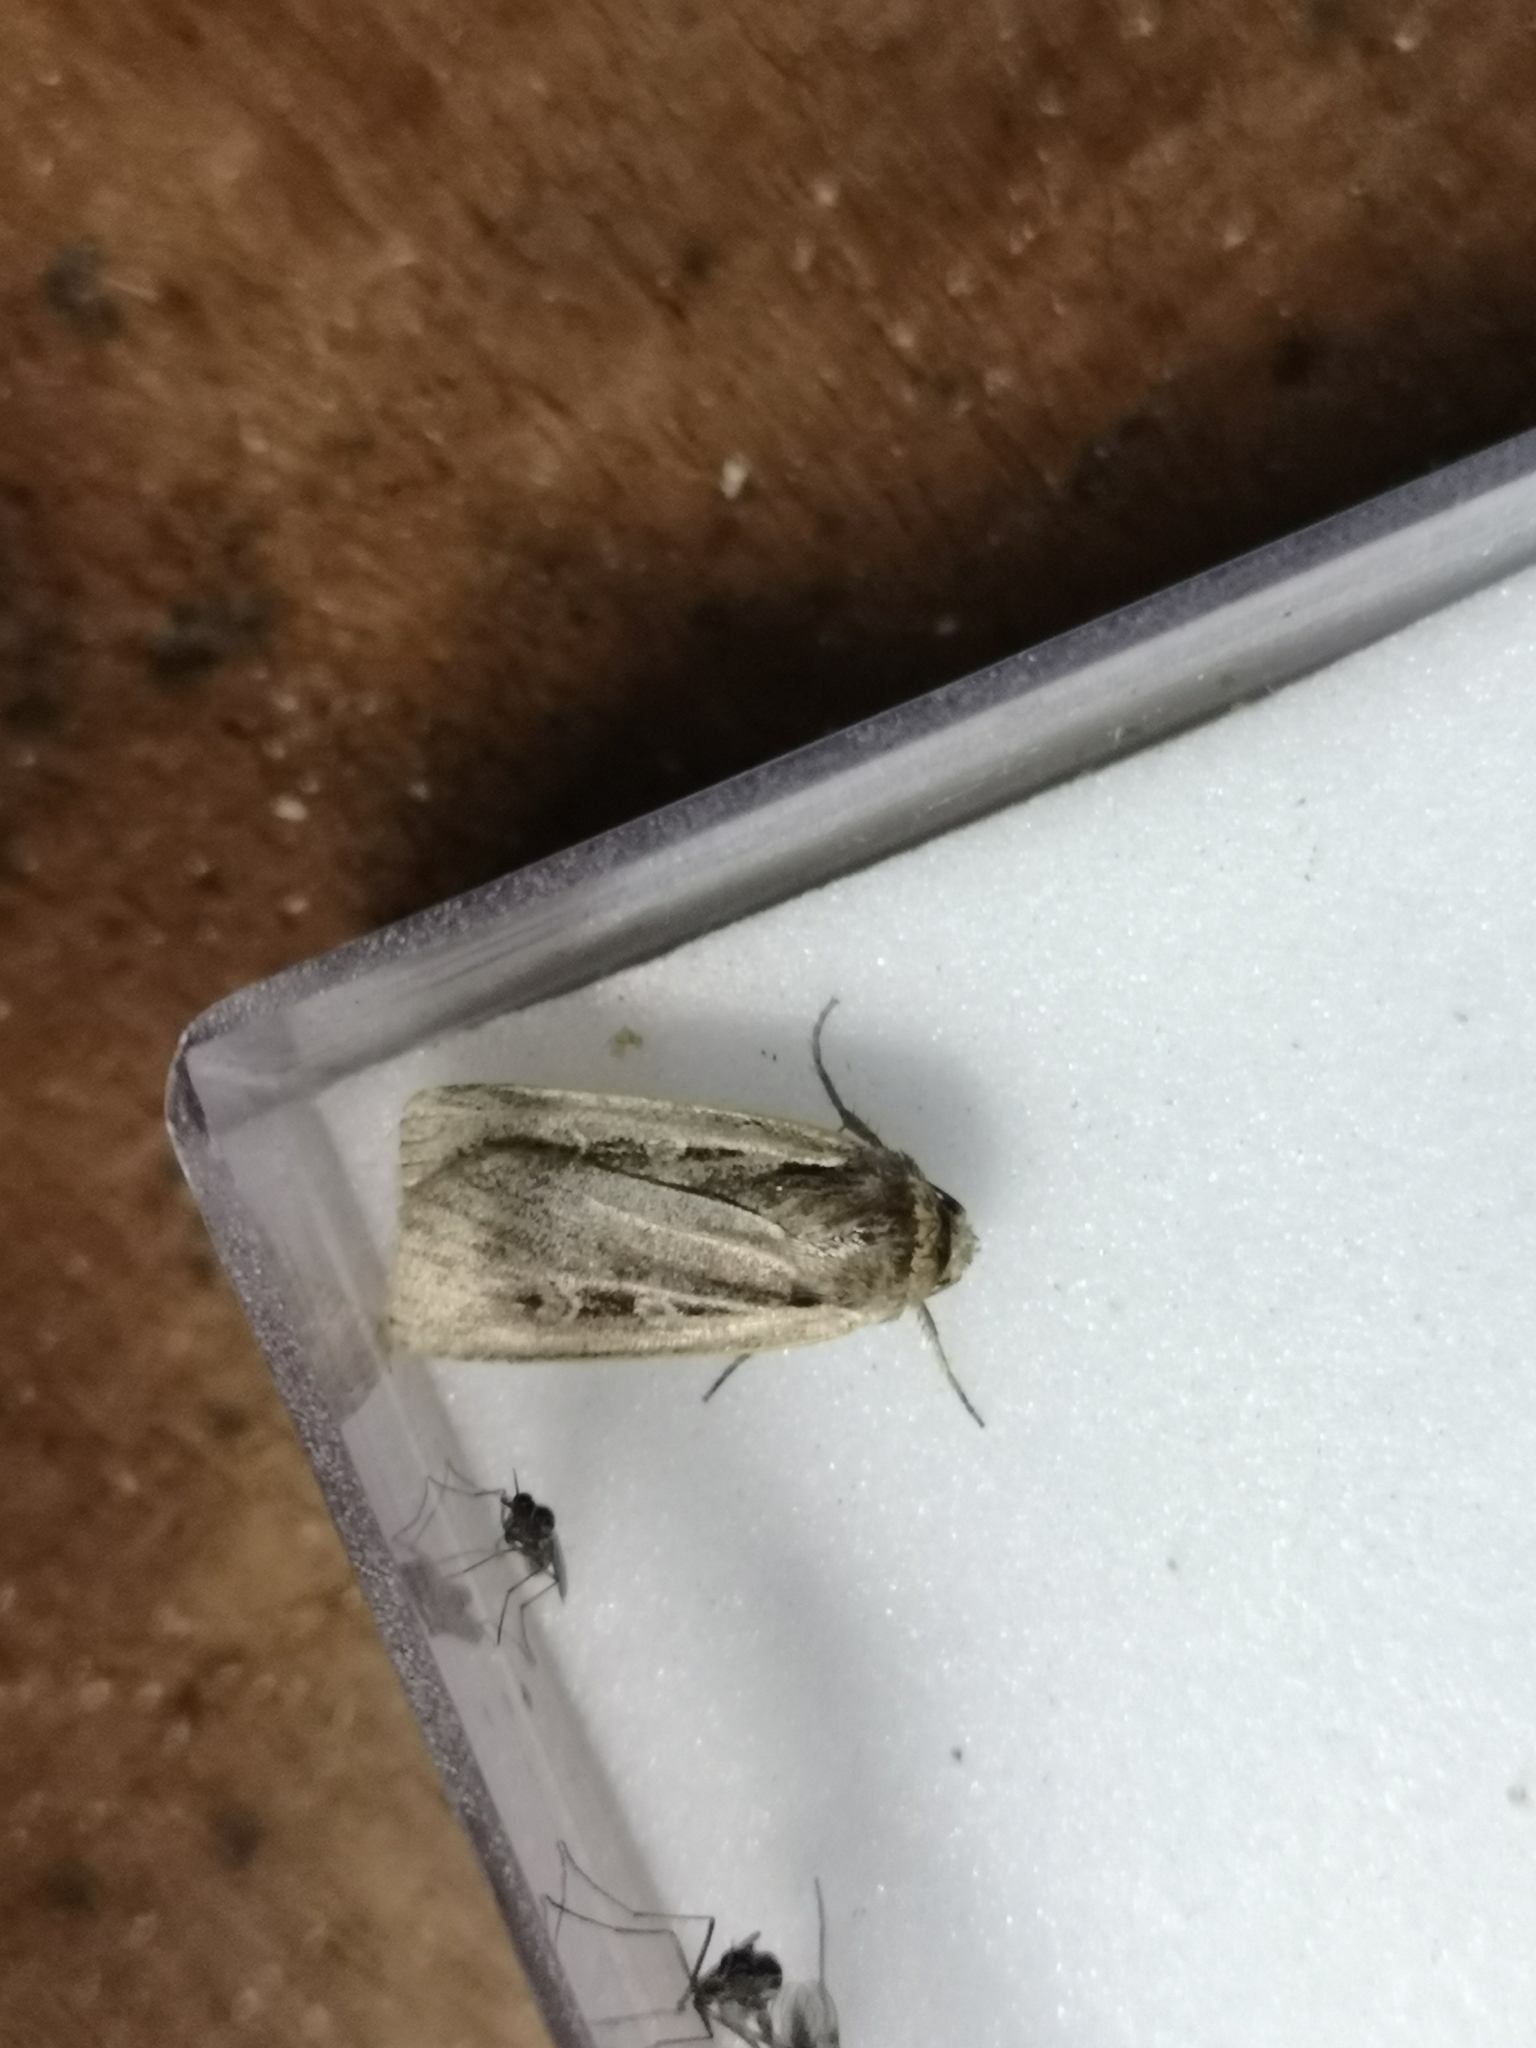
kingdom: Animalia
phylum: Arthropoda
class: Insecta
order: Lepidoptera
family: Noctuidae
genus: Ochropleura
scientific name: Ochropleura plecta
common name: Flame shoulder
